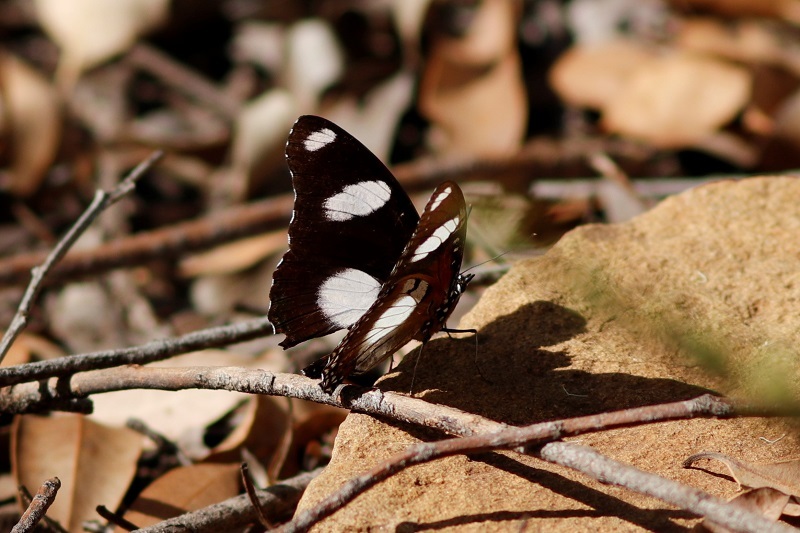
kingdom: Animalia
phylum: Arthropoda
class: Insecta
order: Lepidoptera
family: Nymphalidae
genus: Hypolimnas
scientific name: Hypolimnas misippus
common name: False plain tiger
